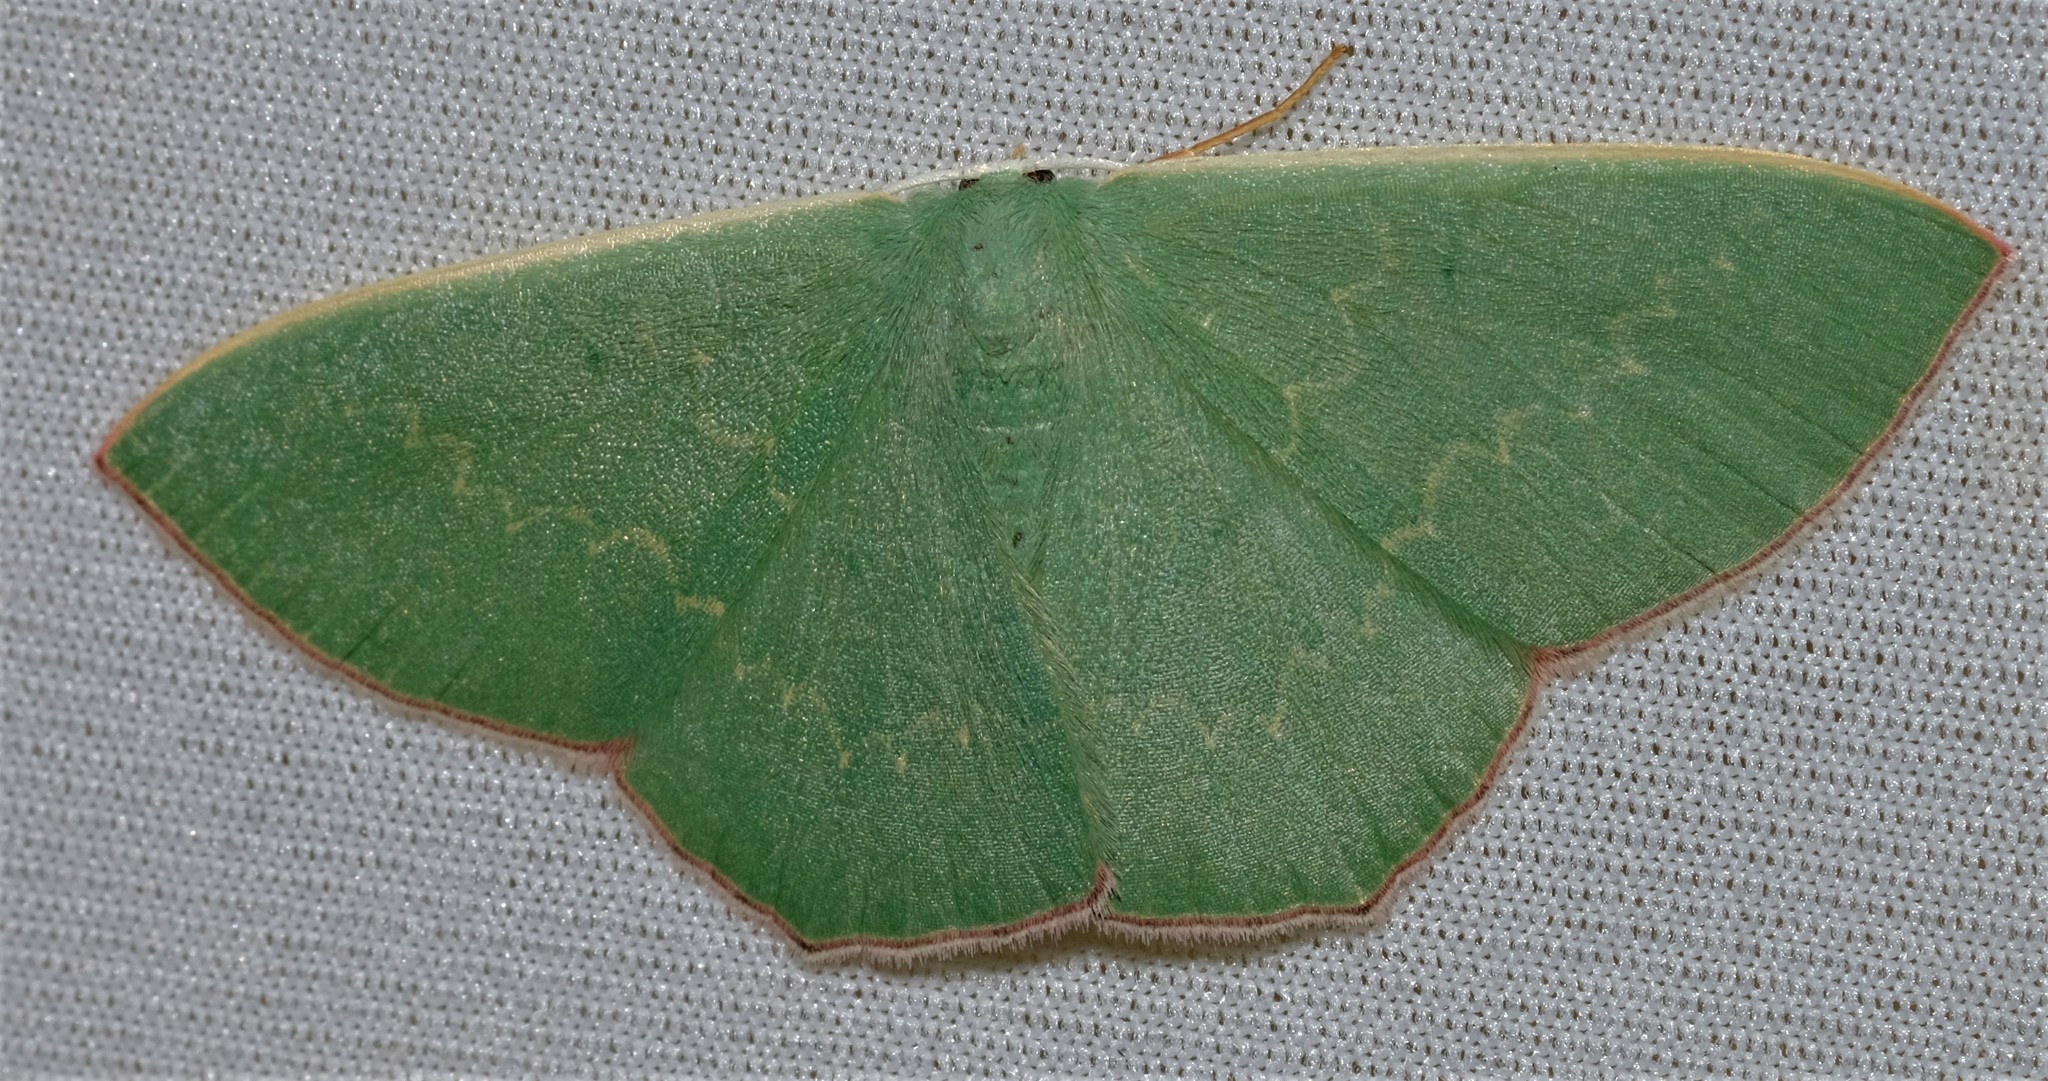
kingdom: Animalia
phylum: Arthropoda
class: Insecta
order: Lepidoptera
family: Geometridae
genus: Prasinocyma
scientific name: Prasinocyma semicrocea
